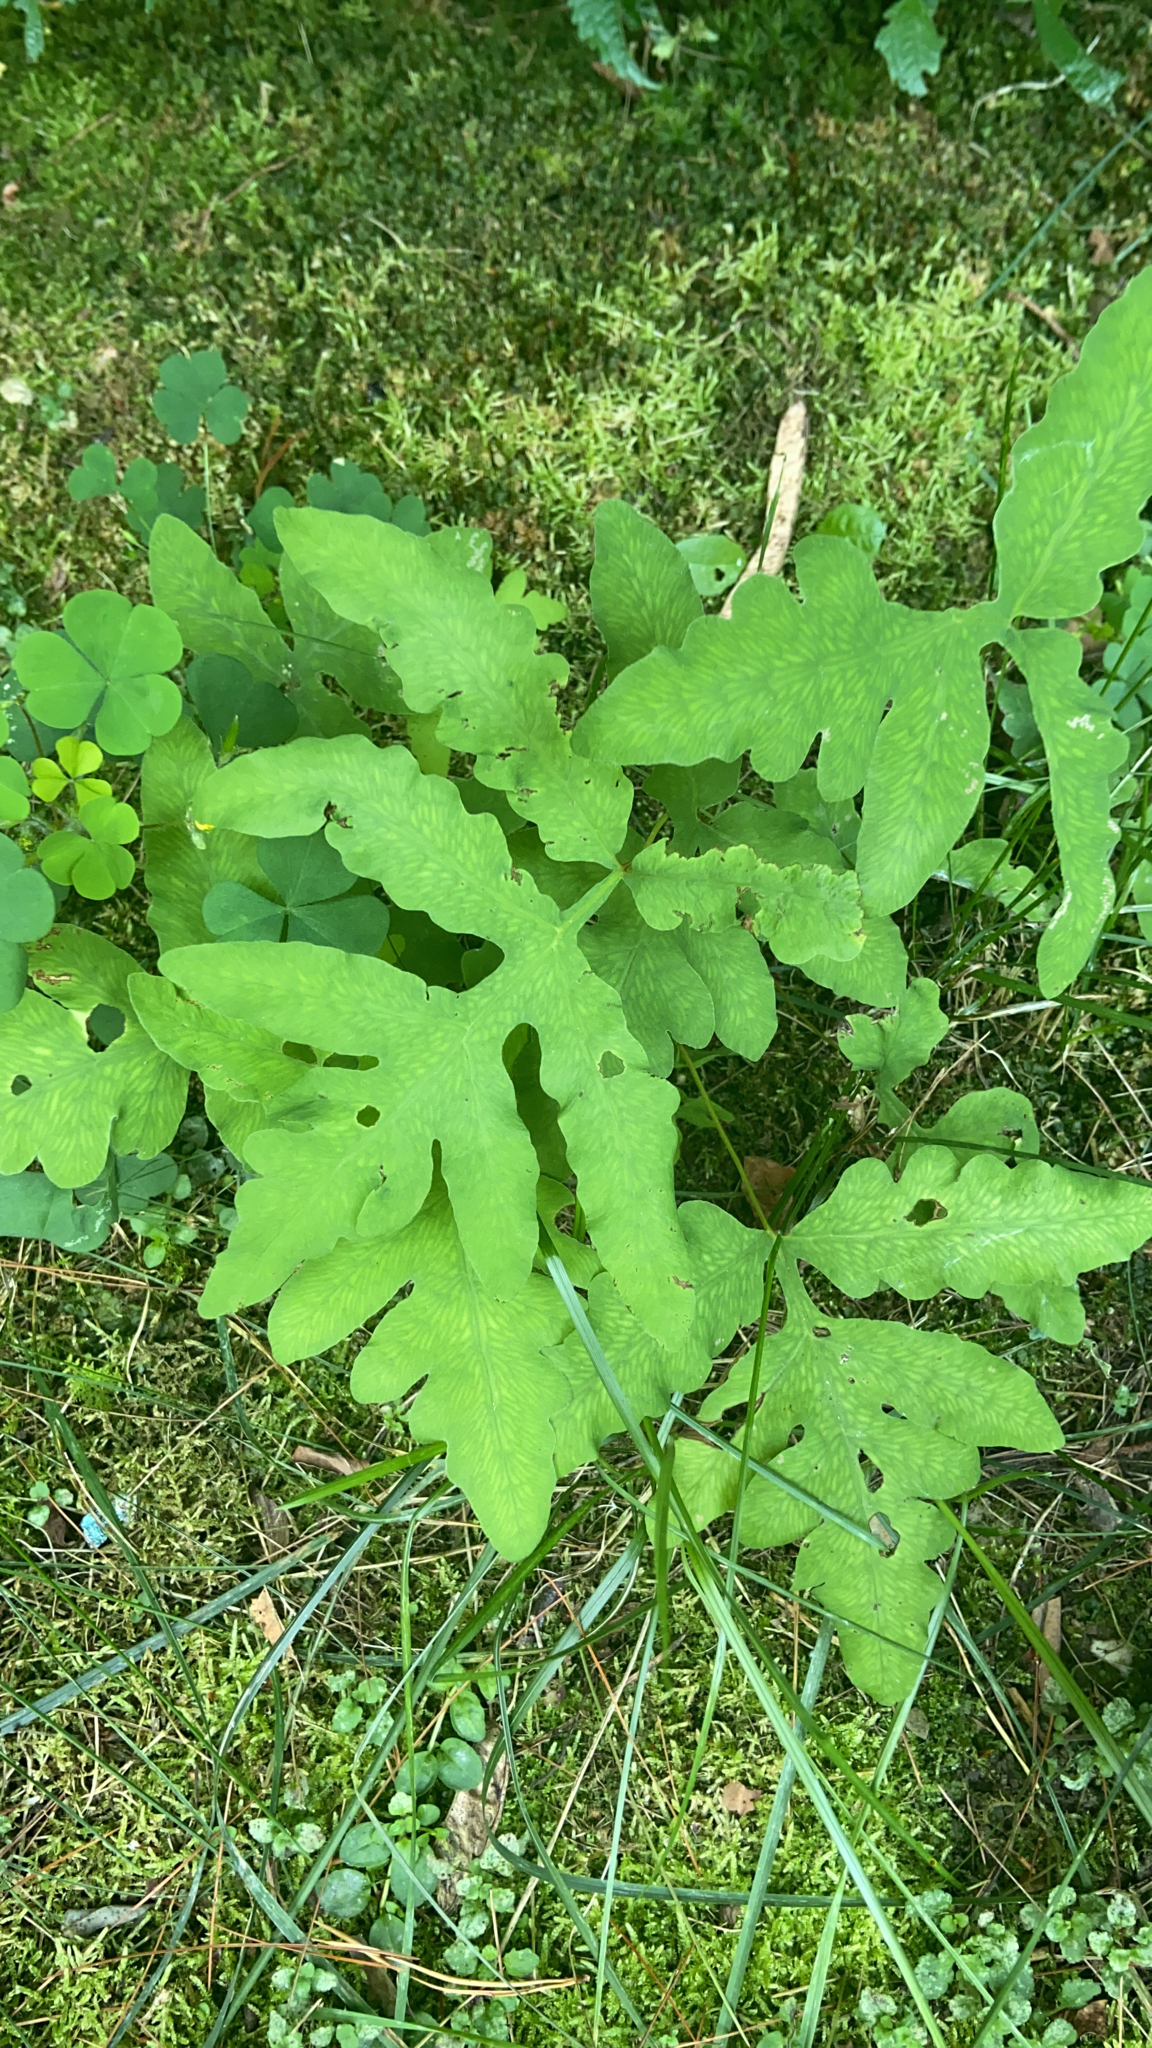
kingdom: Plantae
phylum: Tracheophyta
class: Polypodiopsida
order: Polypodiales
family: Onocleaceae
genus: Onoclea
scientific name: Onoclea sensibilis
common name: Sensitive fern
